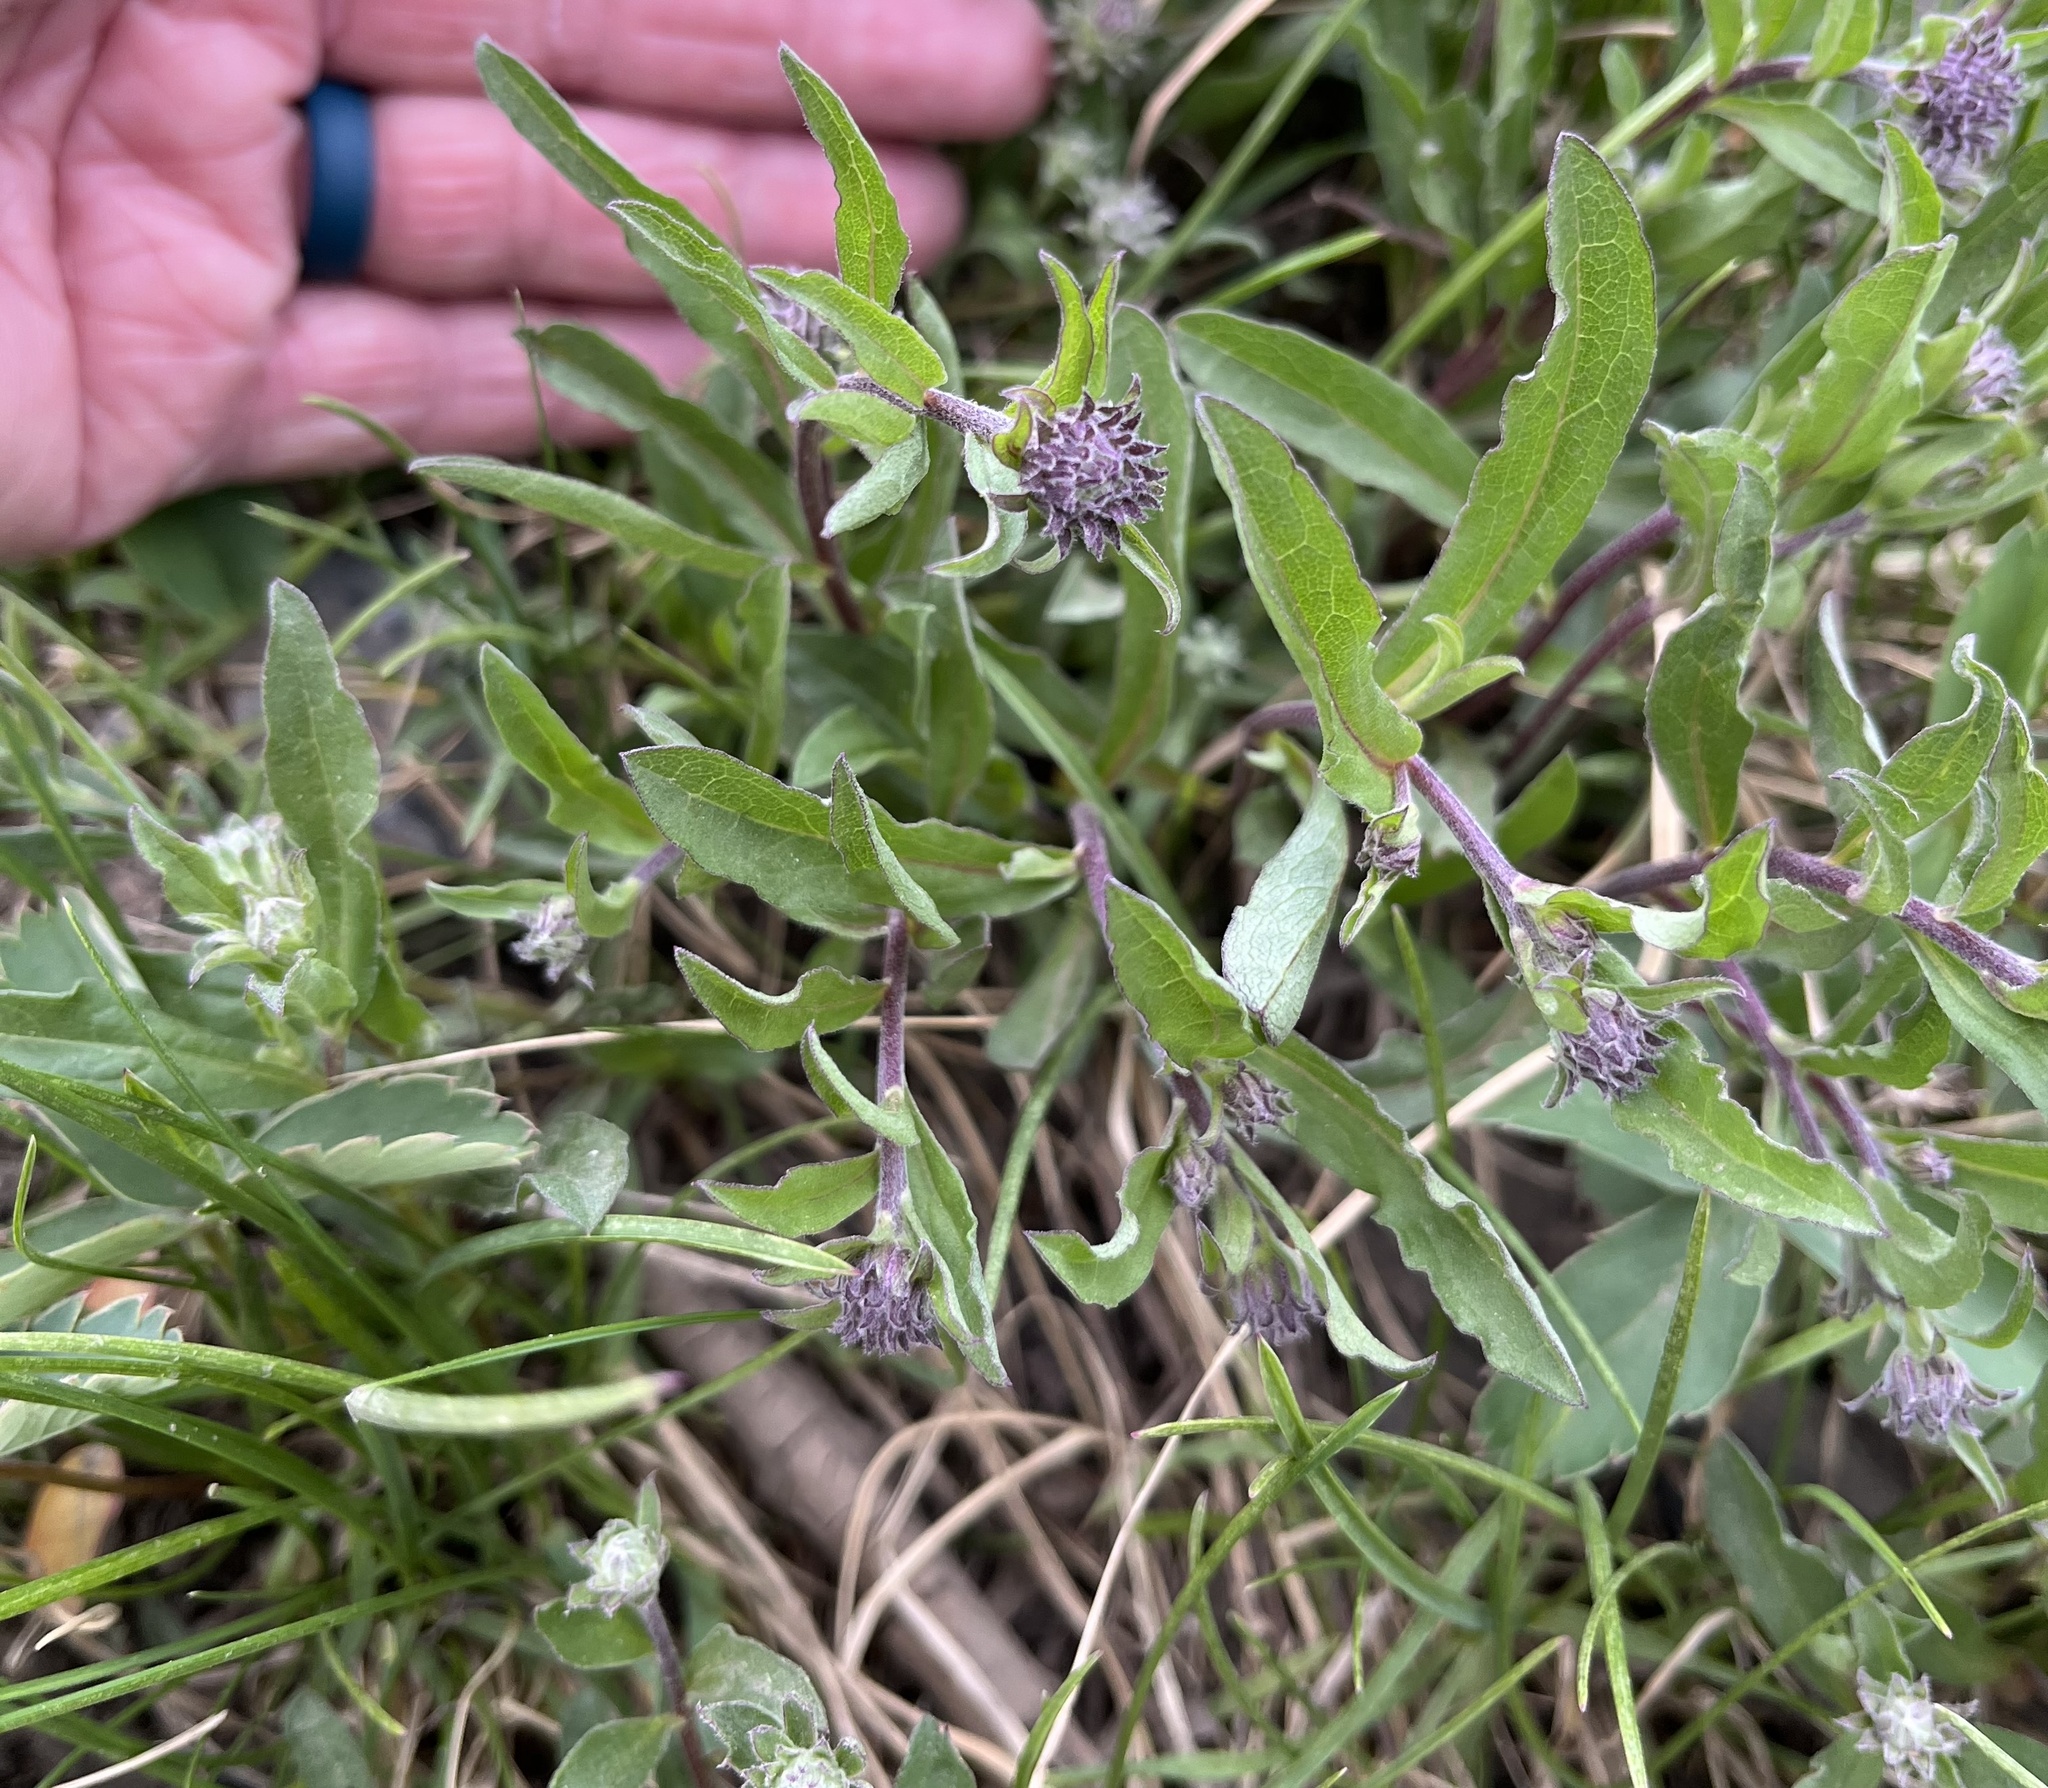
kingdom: Plantae
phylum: Tracheophyta
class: Magnoliopsida
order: Asterales
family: Asteraceae
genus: Eurybia
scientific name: Eurybia sibirica
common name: Arctic aster
